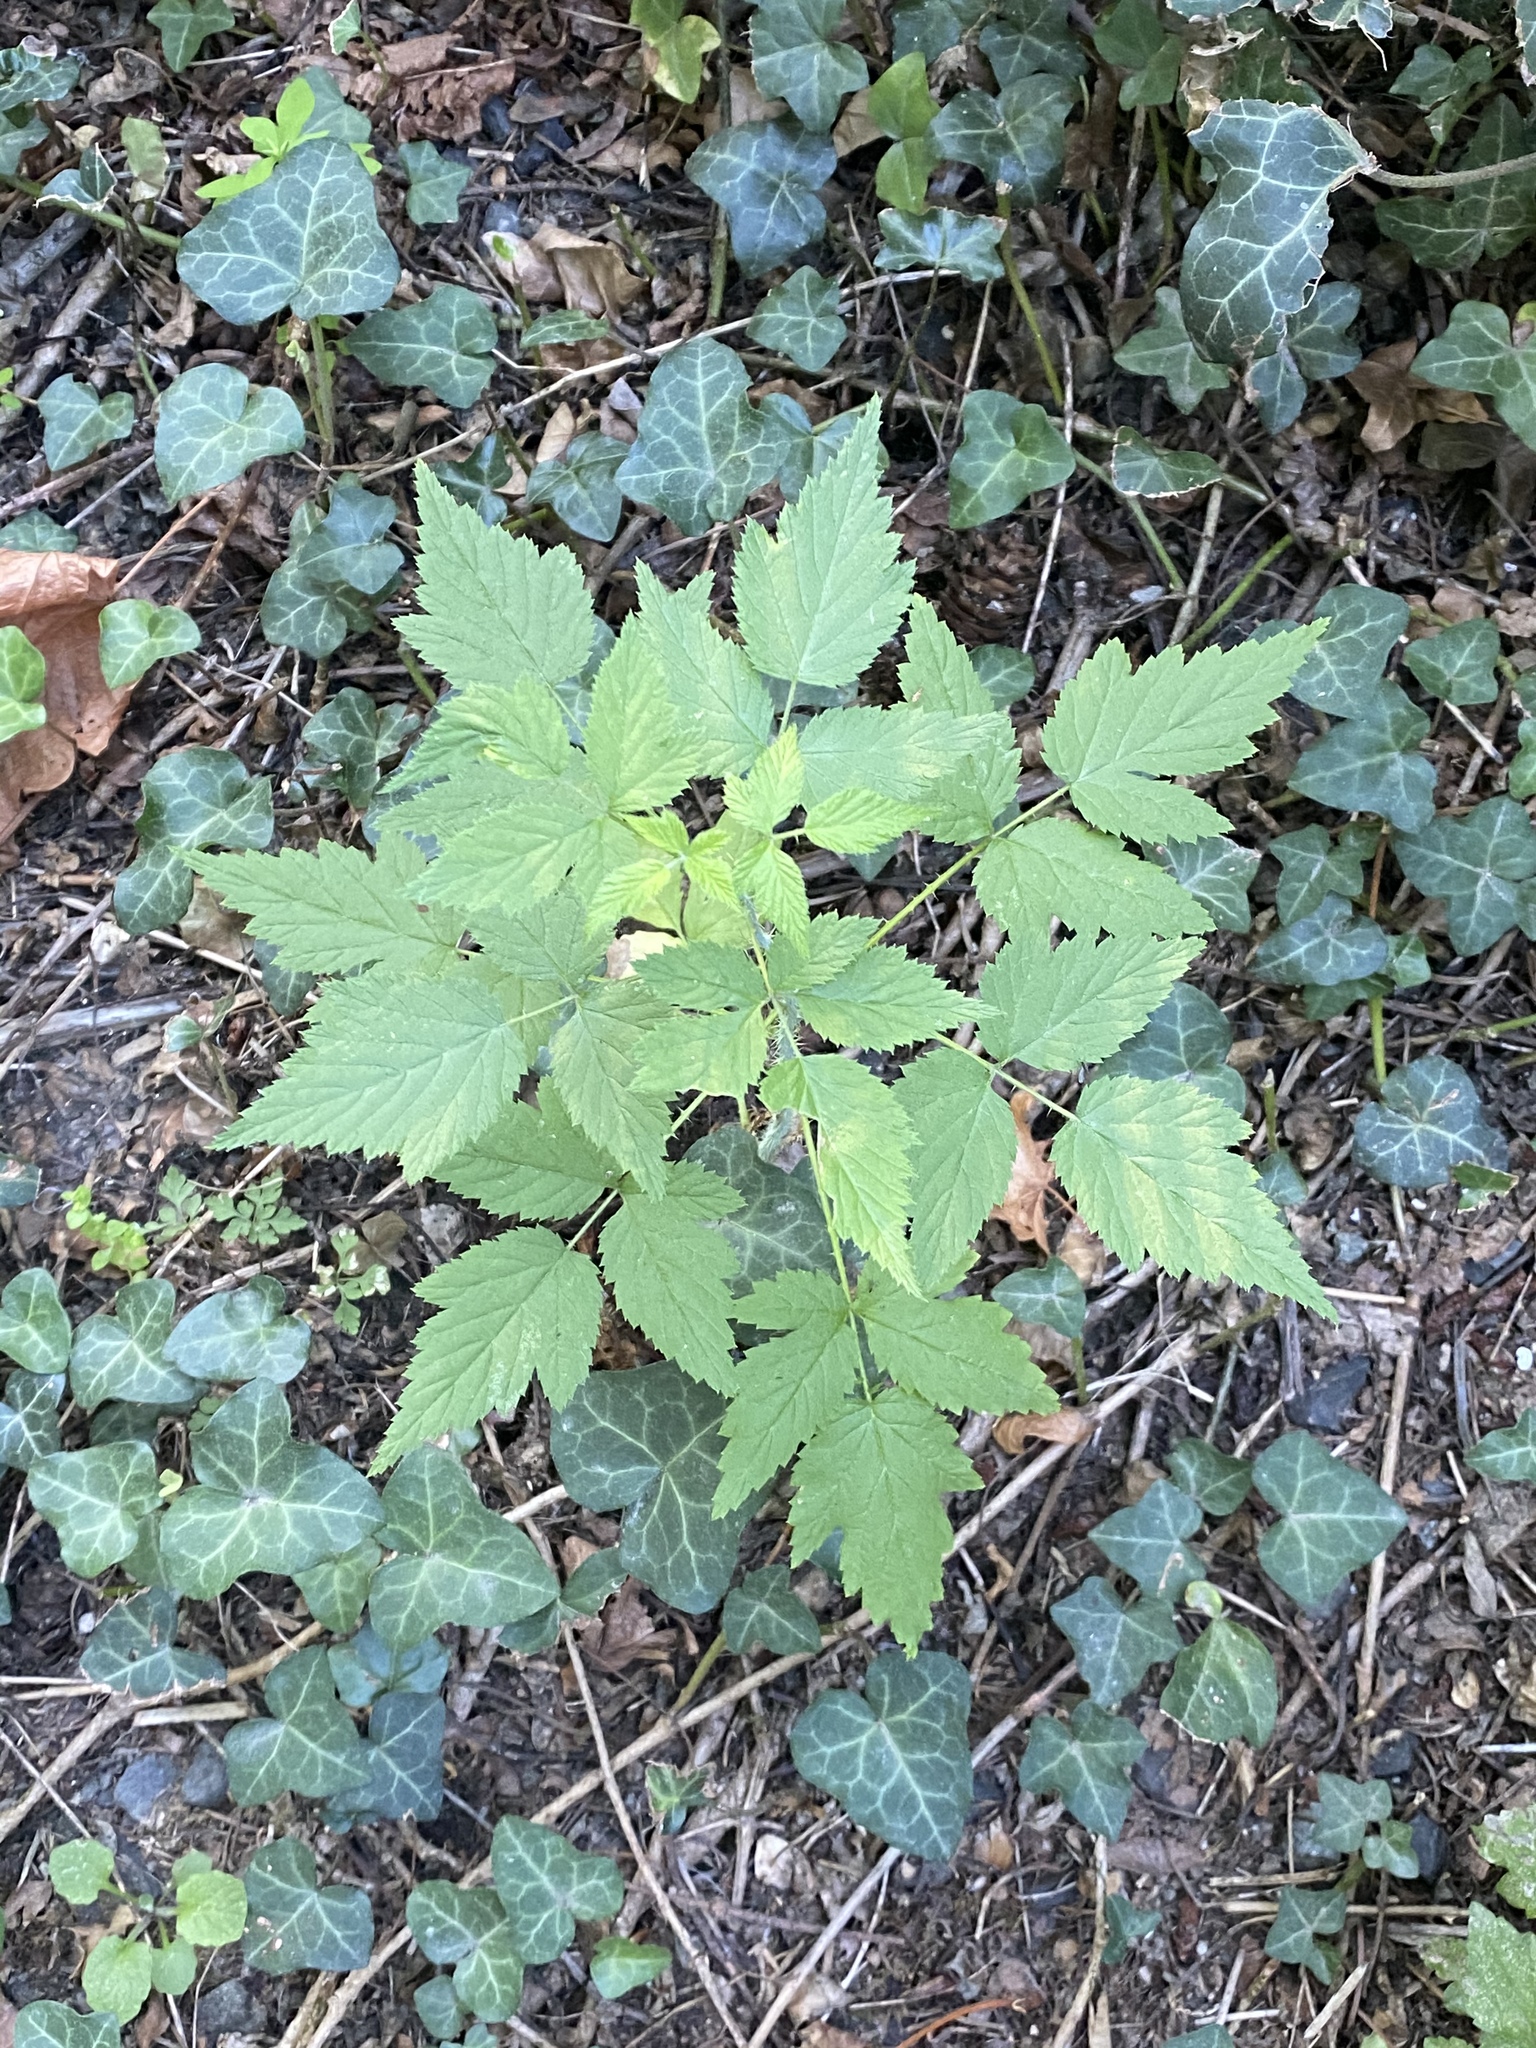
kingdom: Plantae
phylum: Tracheophyta
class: Magnoliopsida
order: Rosales
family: Rosaceae
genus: Rubus
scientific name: Rubus spectabilis
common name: Salmonberry
